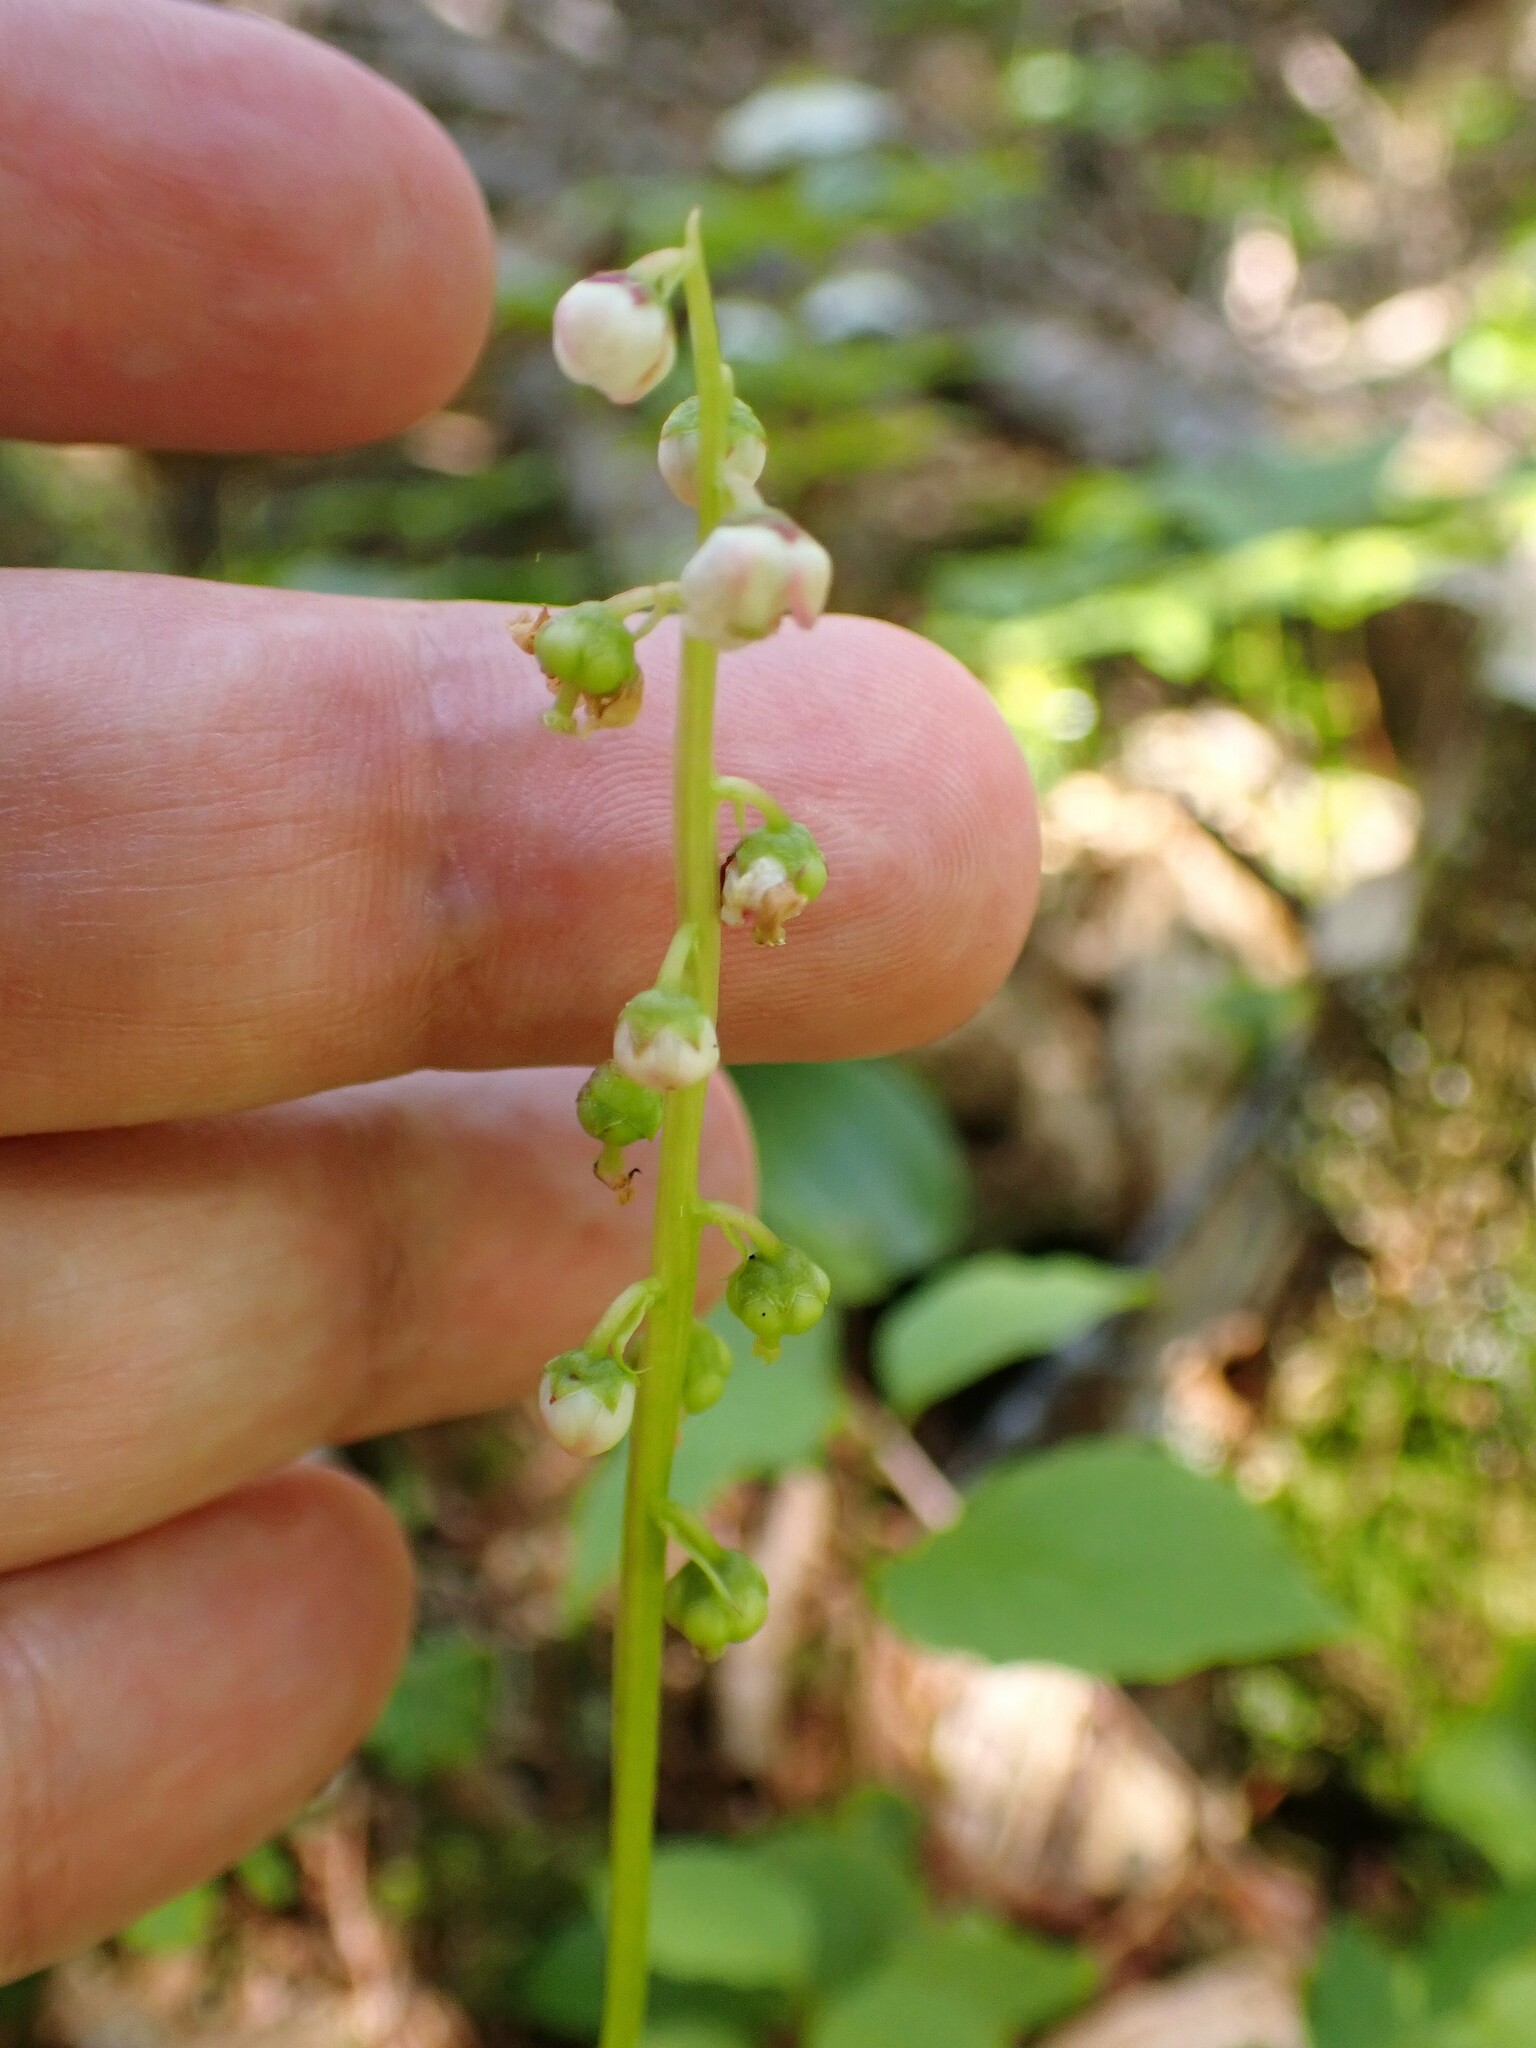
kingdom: Plantae
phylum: Tracheophyta
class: Magnoliopsida
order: Ericales
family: Ericaceae
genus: Pyrola
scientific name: Pyrola minor
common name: Common wintergreen
